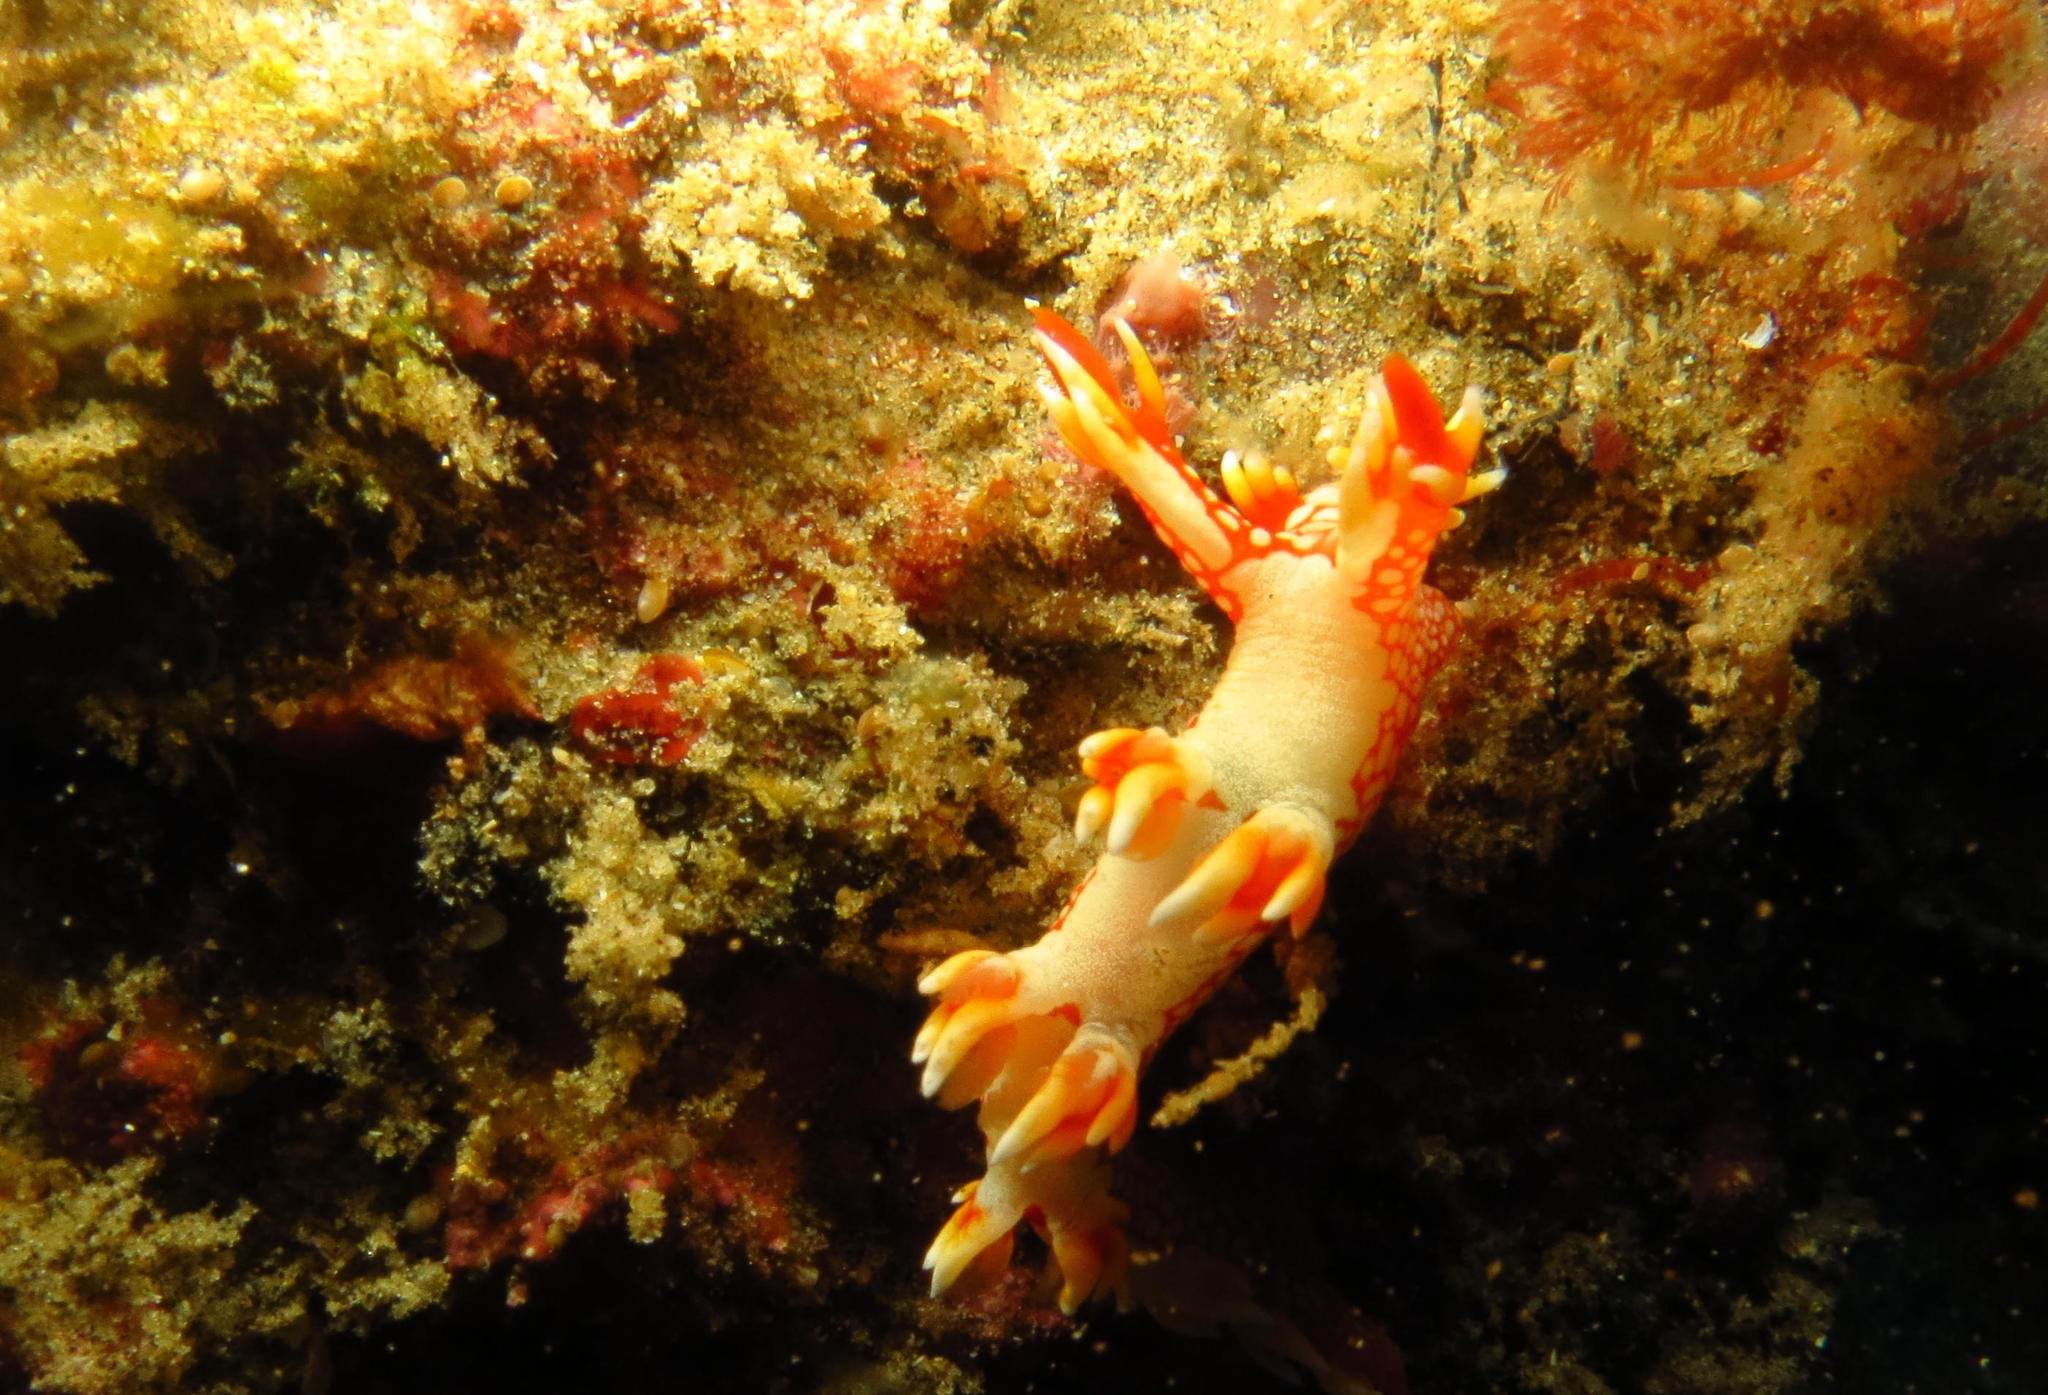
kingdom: Animalia
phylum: Mollusca
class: Gastropoda
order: Nudibranchia
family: Bornellidae
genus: Bornella
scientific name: Bornella valdae
